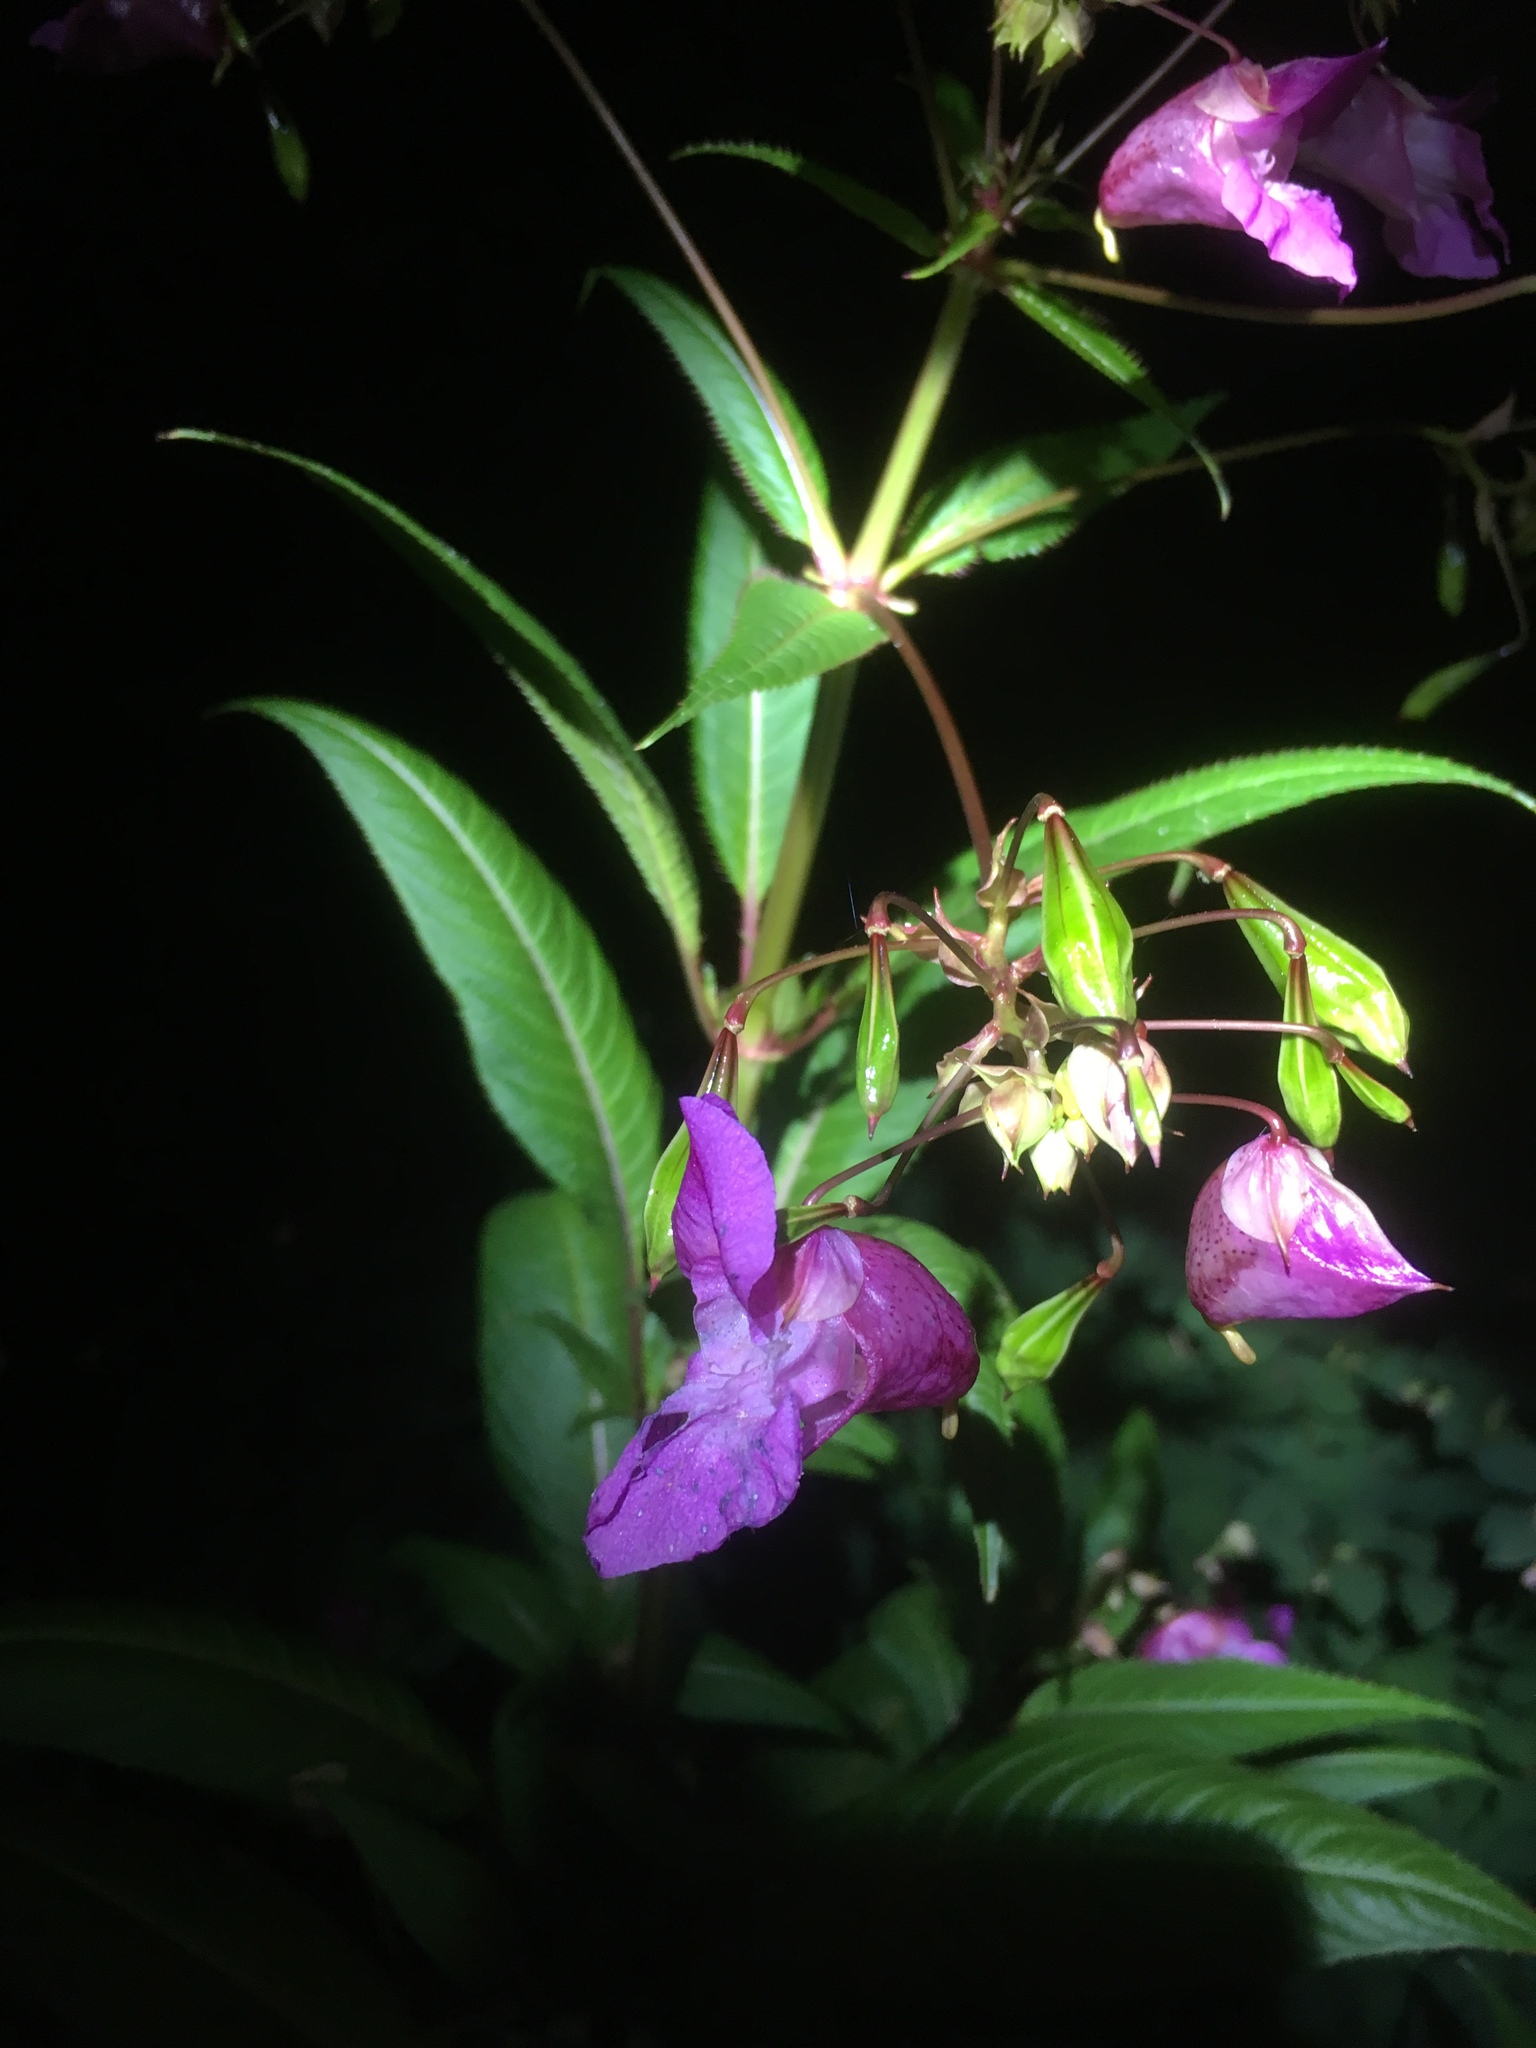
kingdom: Plantae
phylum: Tracheophyta
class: Magnoliopsida
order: Ericales
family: Balsaminaceae
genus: Impatiens
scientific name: Impatiens glandulifera
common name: Himalayan balsam
